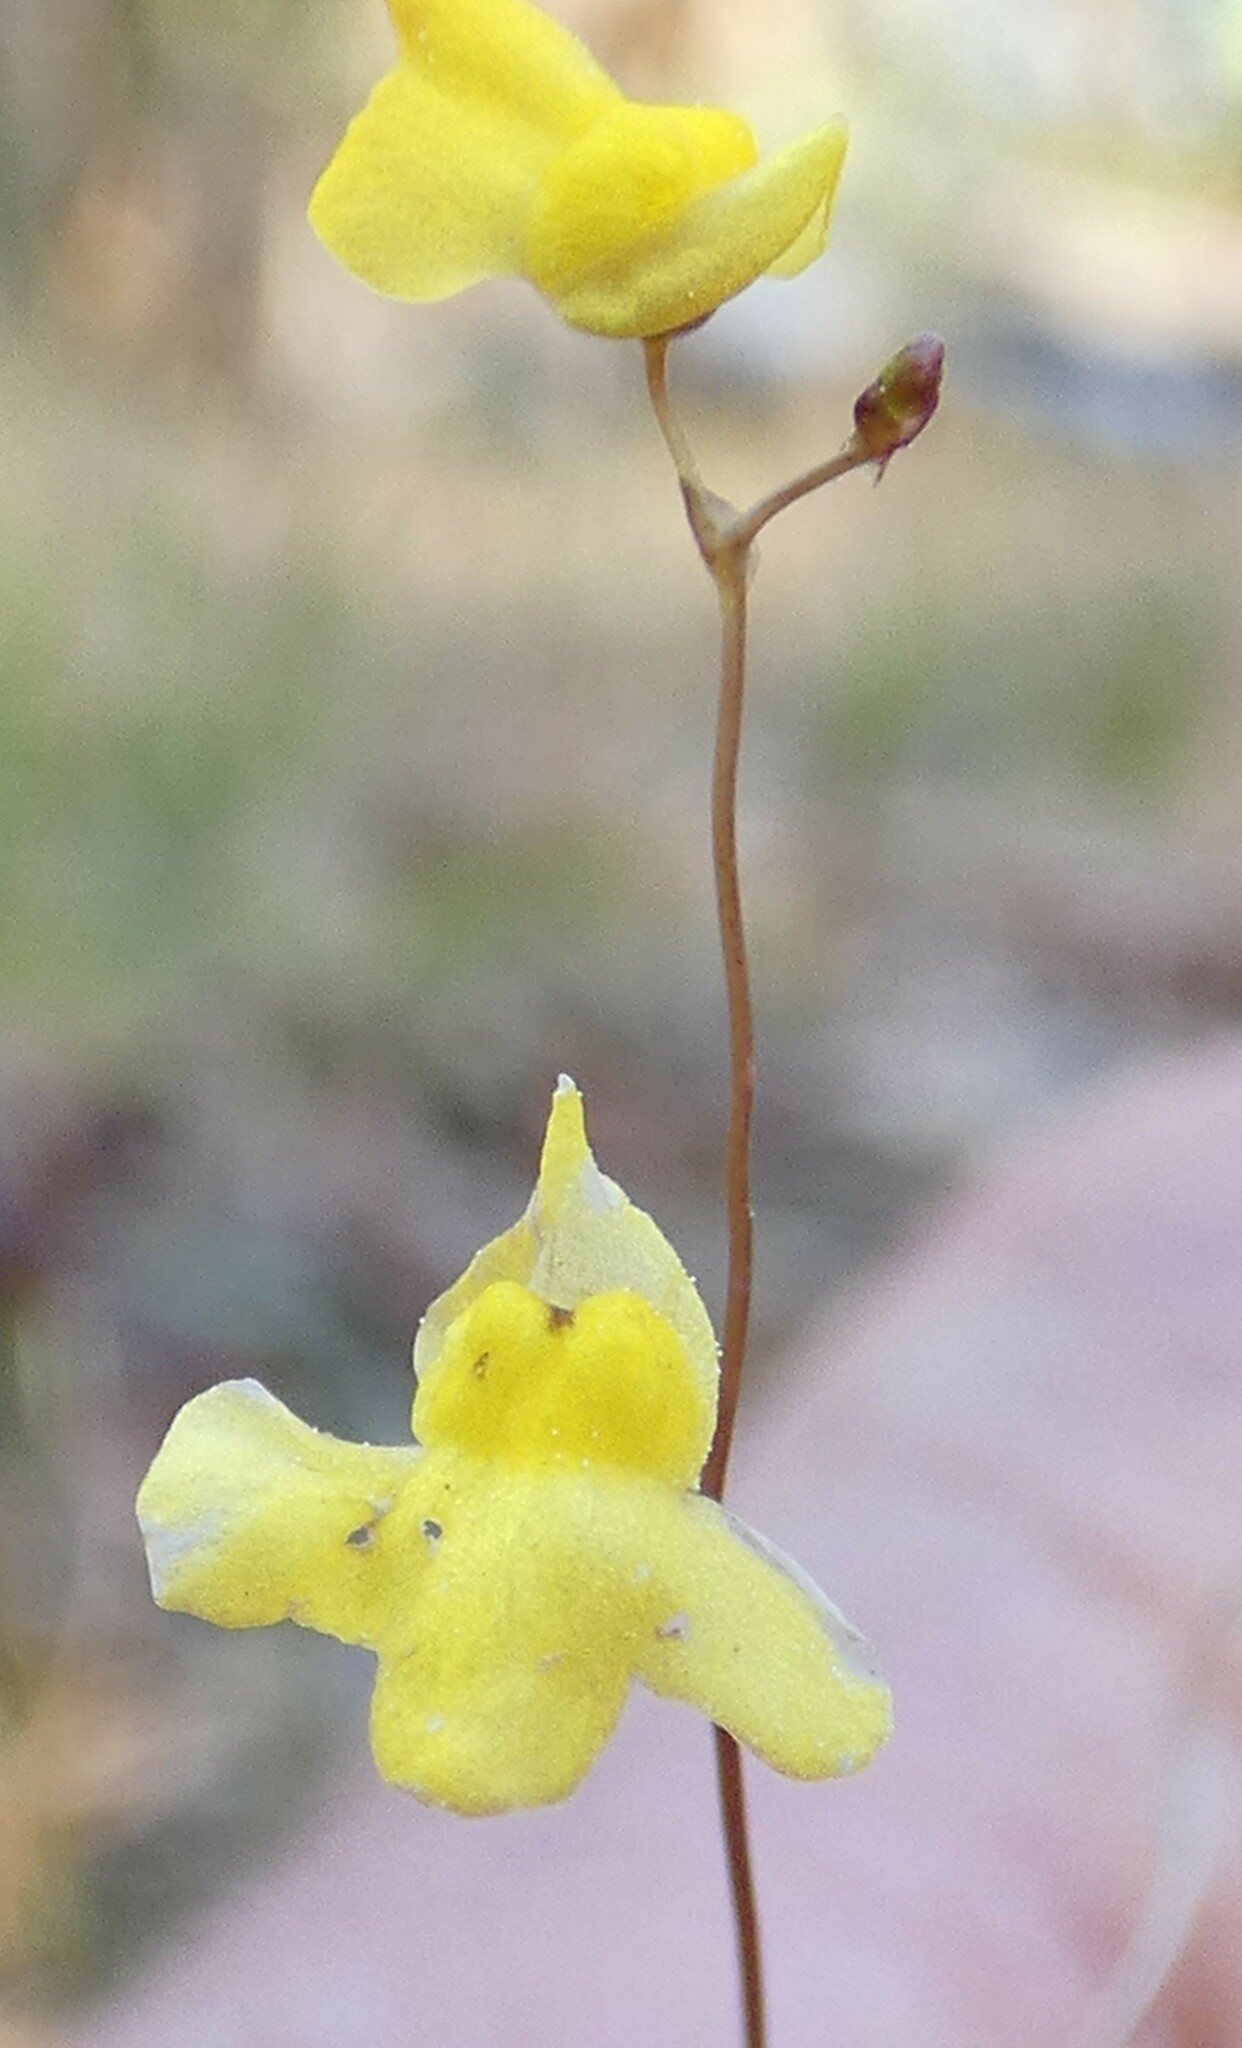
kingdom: Plantae
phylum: Tracheophyta
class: Magnoliopsida
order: Lamiales
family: Lentibulariaceae
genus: Utricularia
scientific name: Utricularia subulata
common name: Tiny bladderwort
